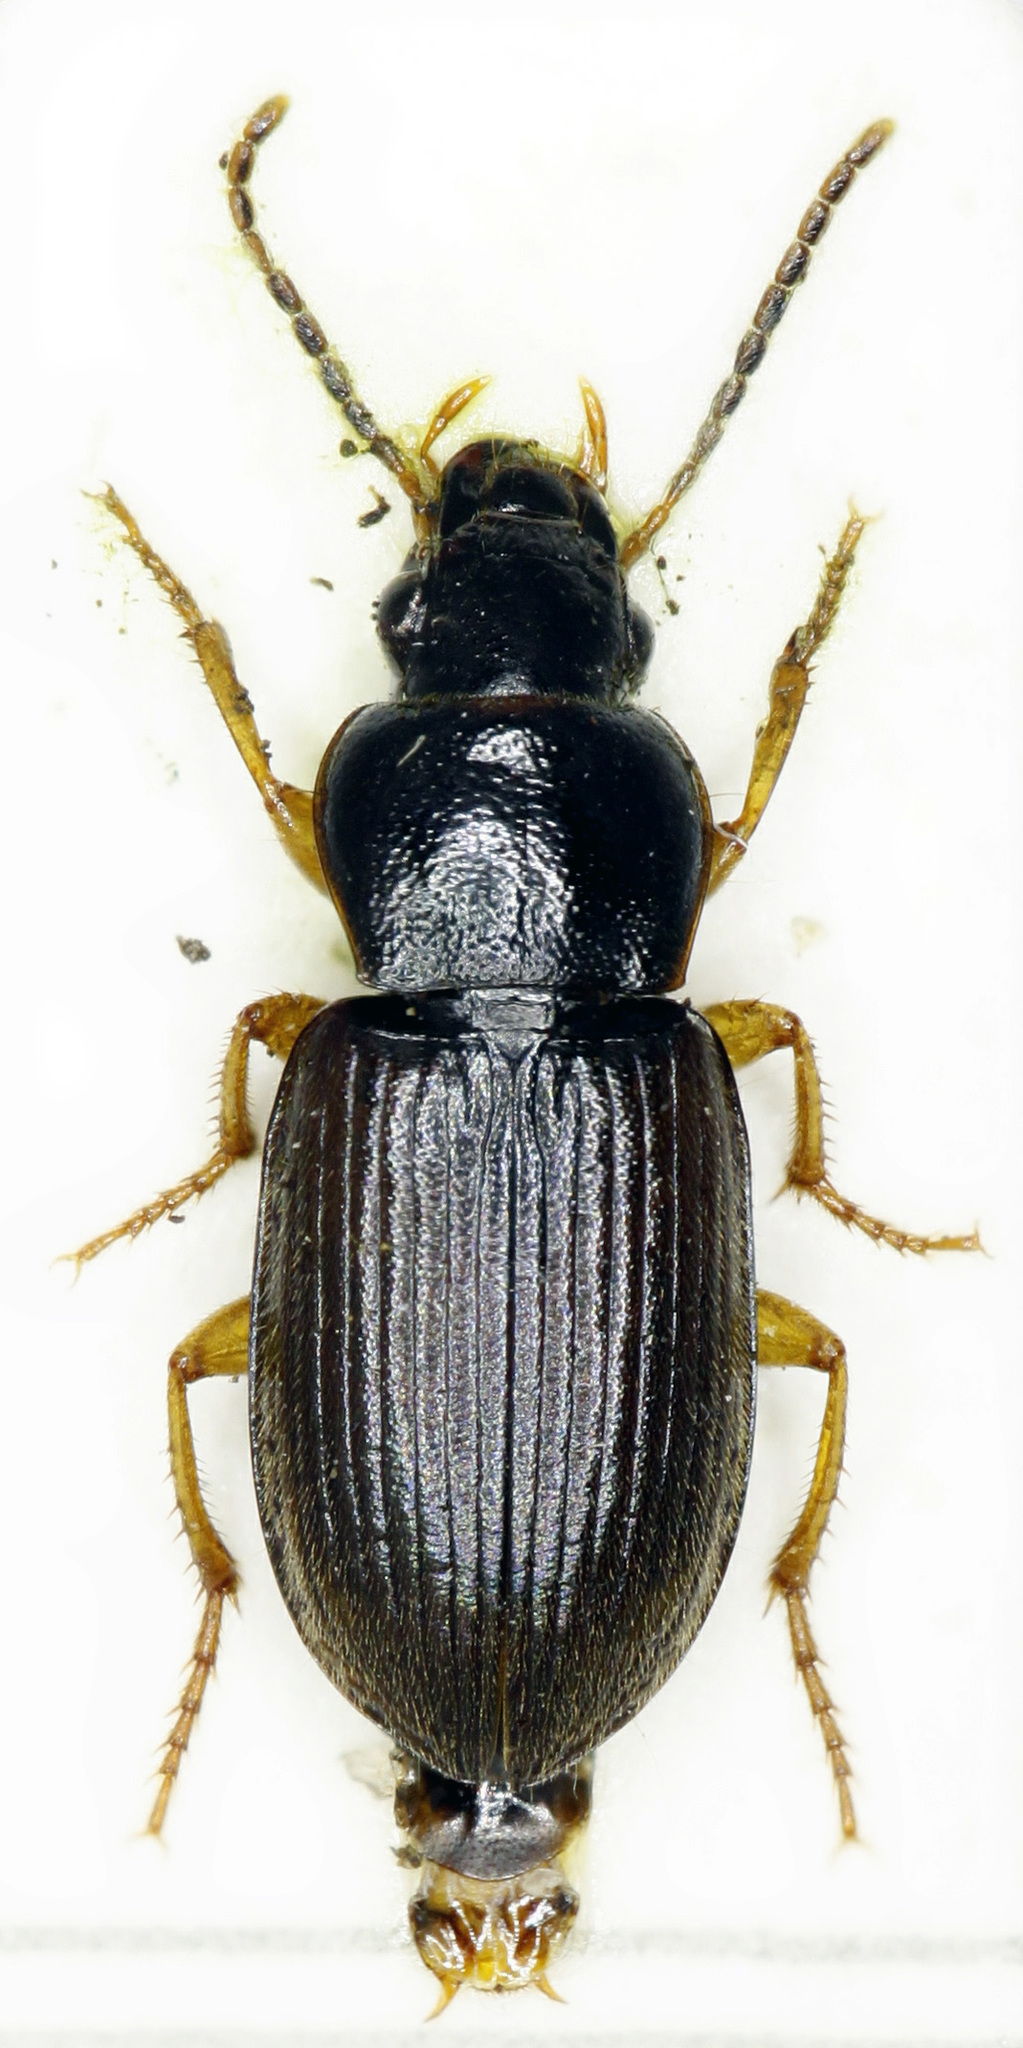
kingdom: Animalia
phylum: Arthropoda
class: Insecta
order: Coleoptera
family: Carabidae
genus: Parophonus
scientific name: Parophonus maculicornis
